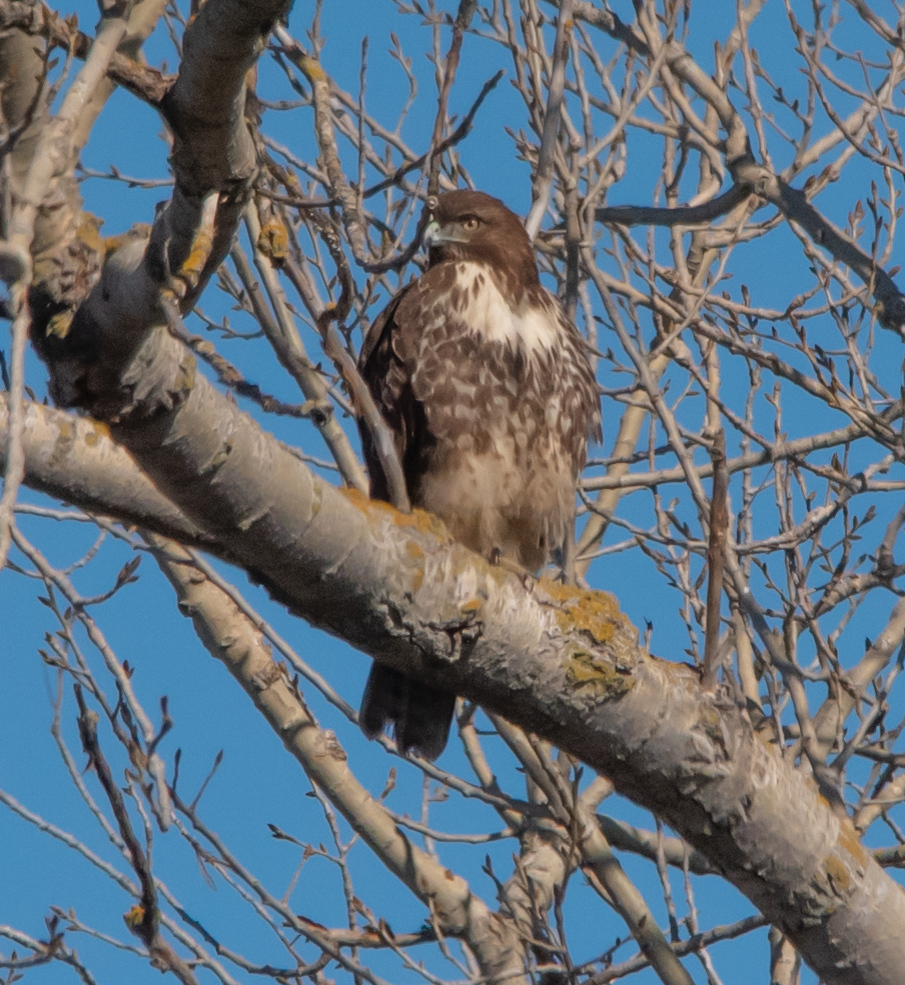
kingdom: Animalia
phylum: Chordata
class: Aves
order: Accipitriformes
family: Accipitridae
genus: Buteo
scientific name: Buteo jamaicensis
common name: Red-tailed hawk
